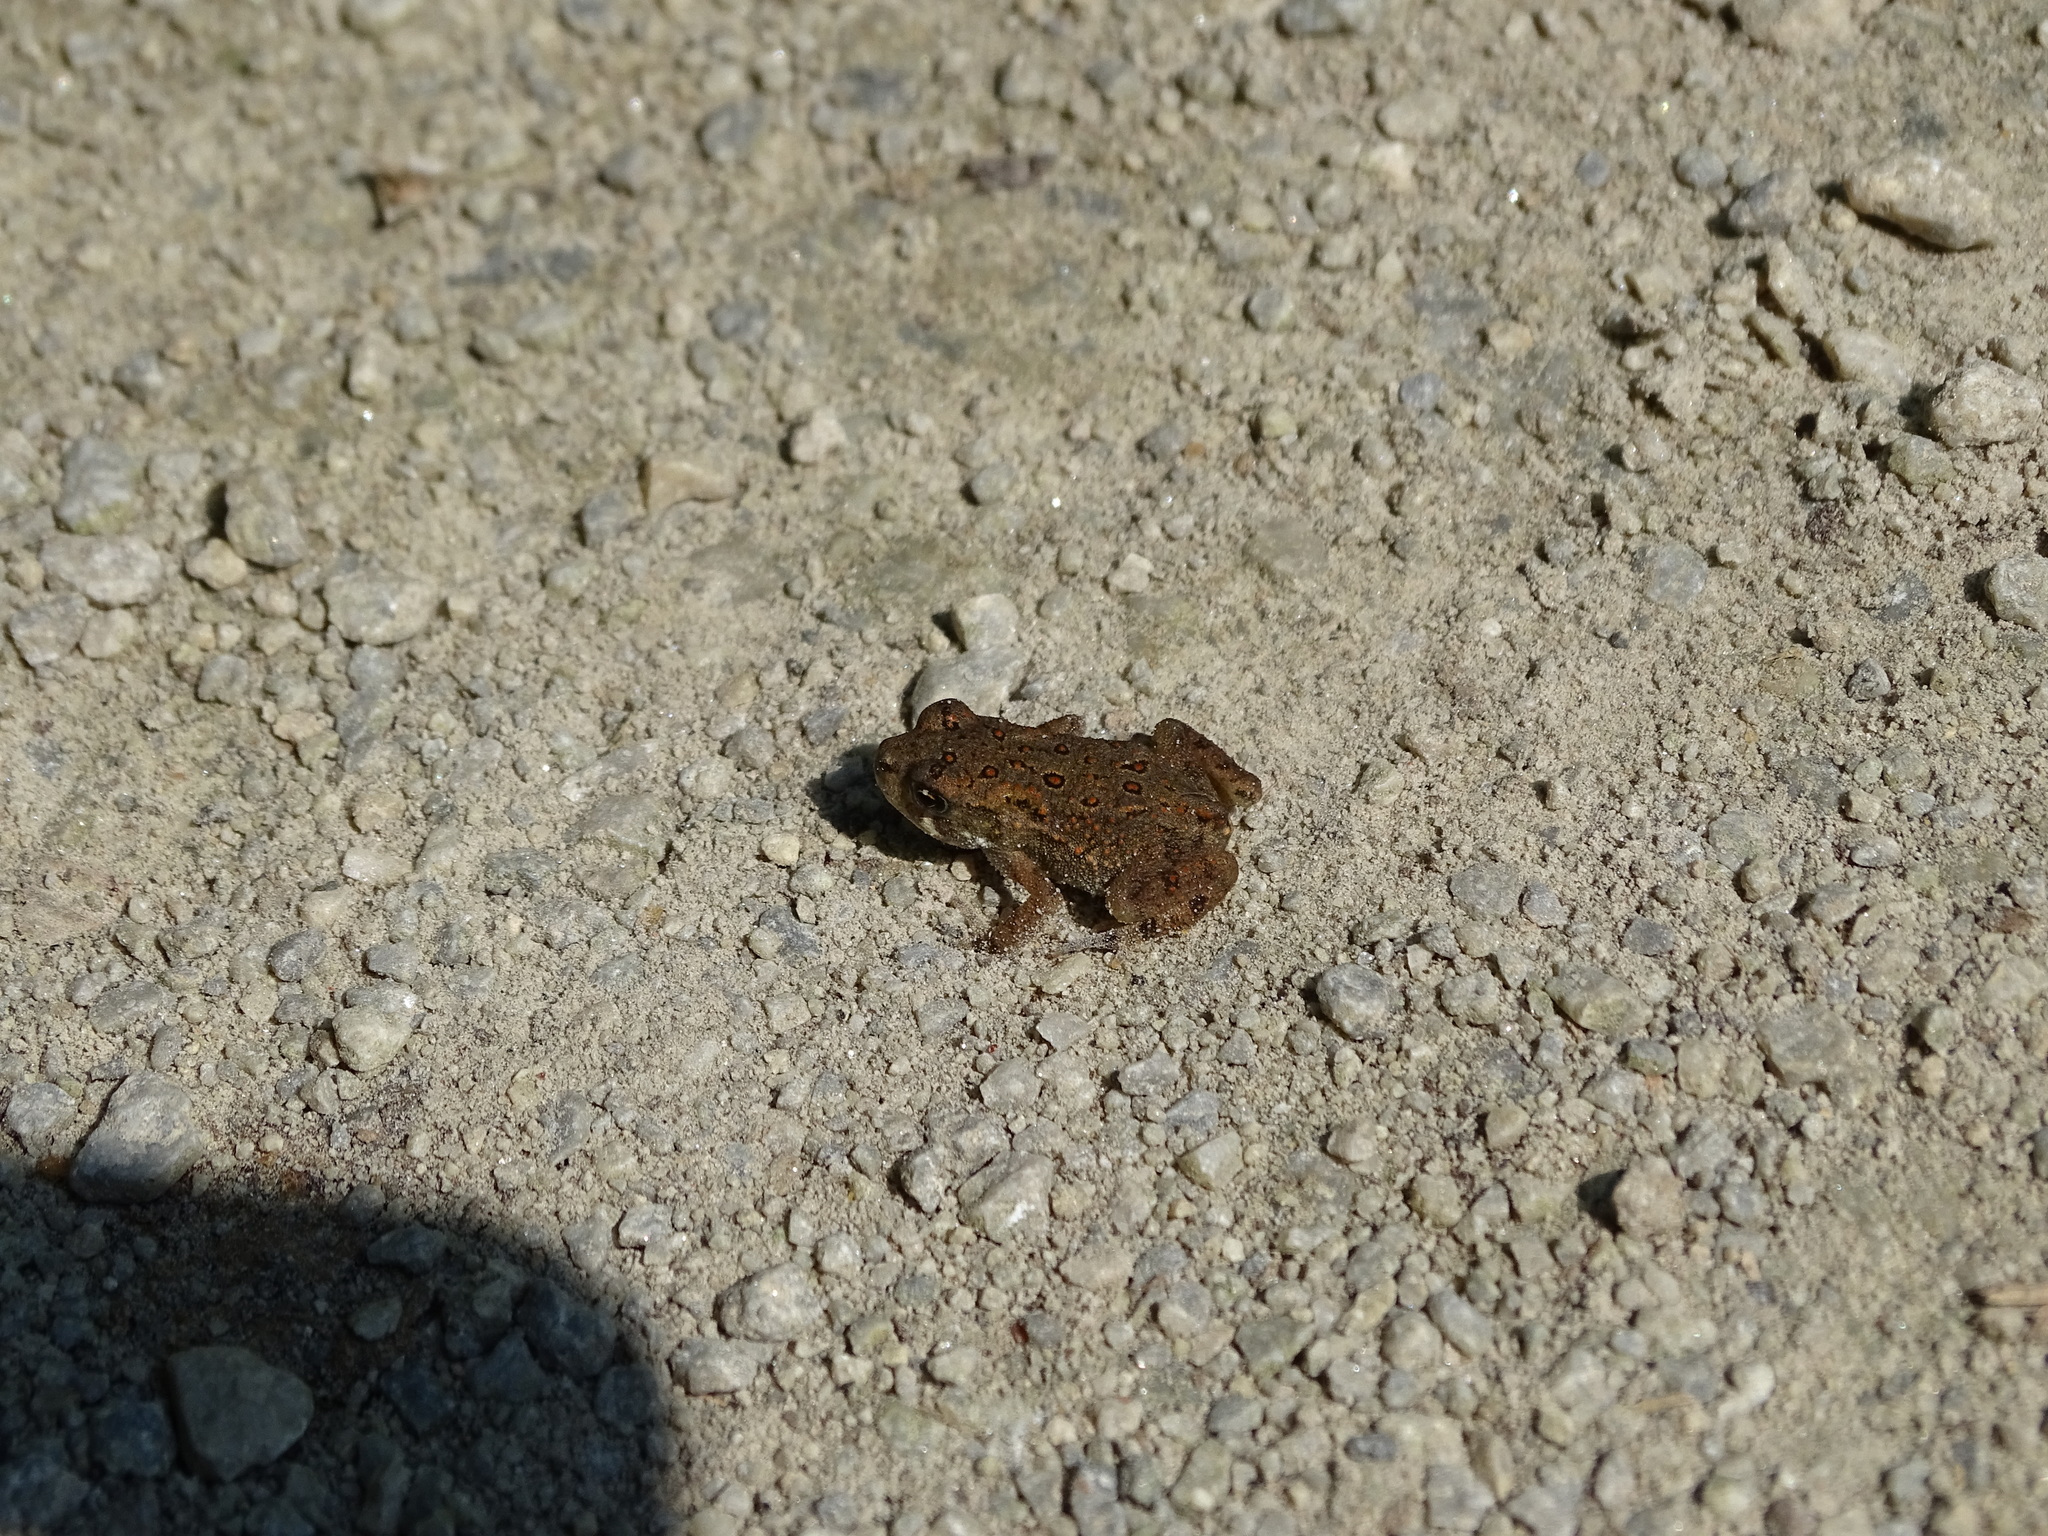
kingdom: Animalia
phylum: Chordata
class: Amphibia
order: Anura
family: Bufonidae
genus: Anaxyrus
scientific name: Anaxyrus americanus
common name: American toad
